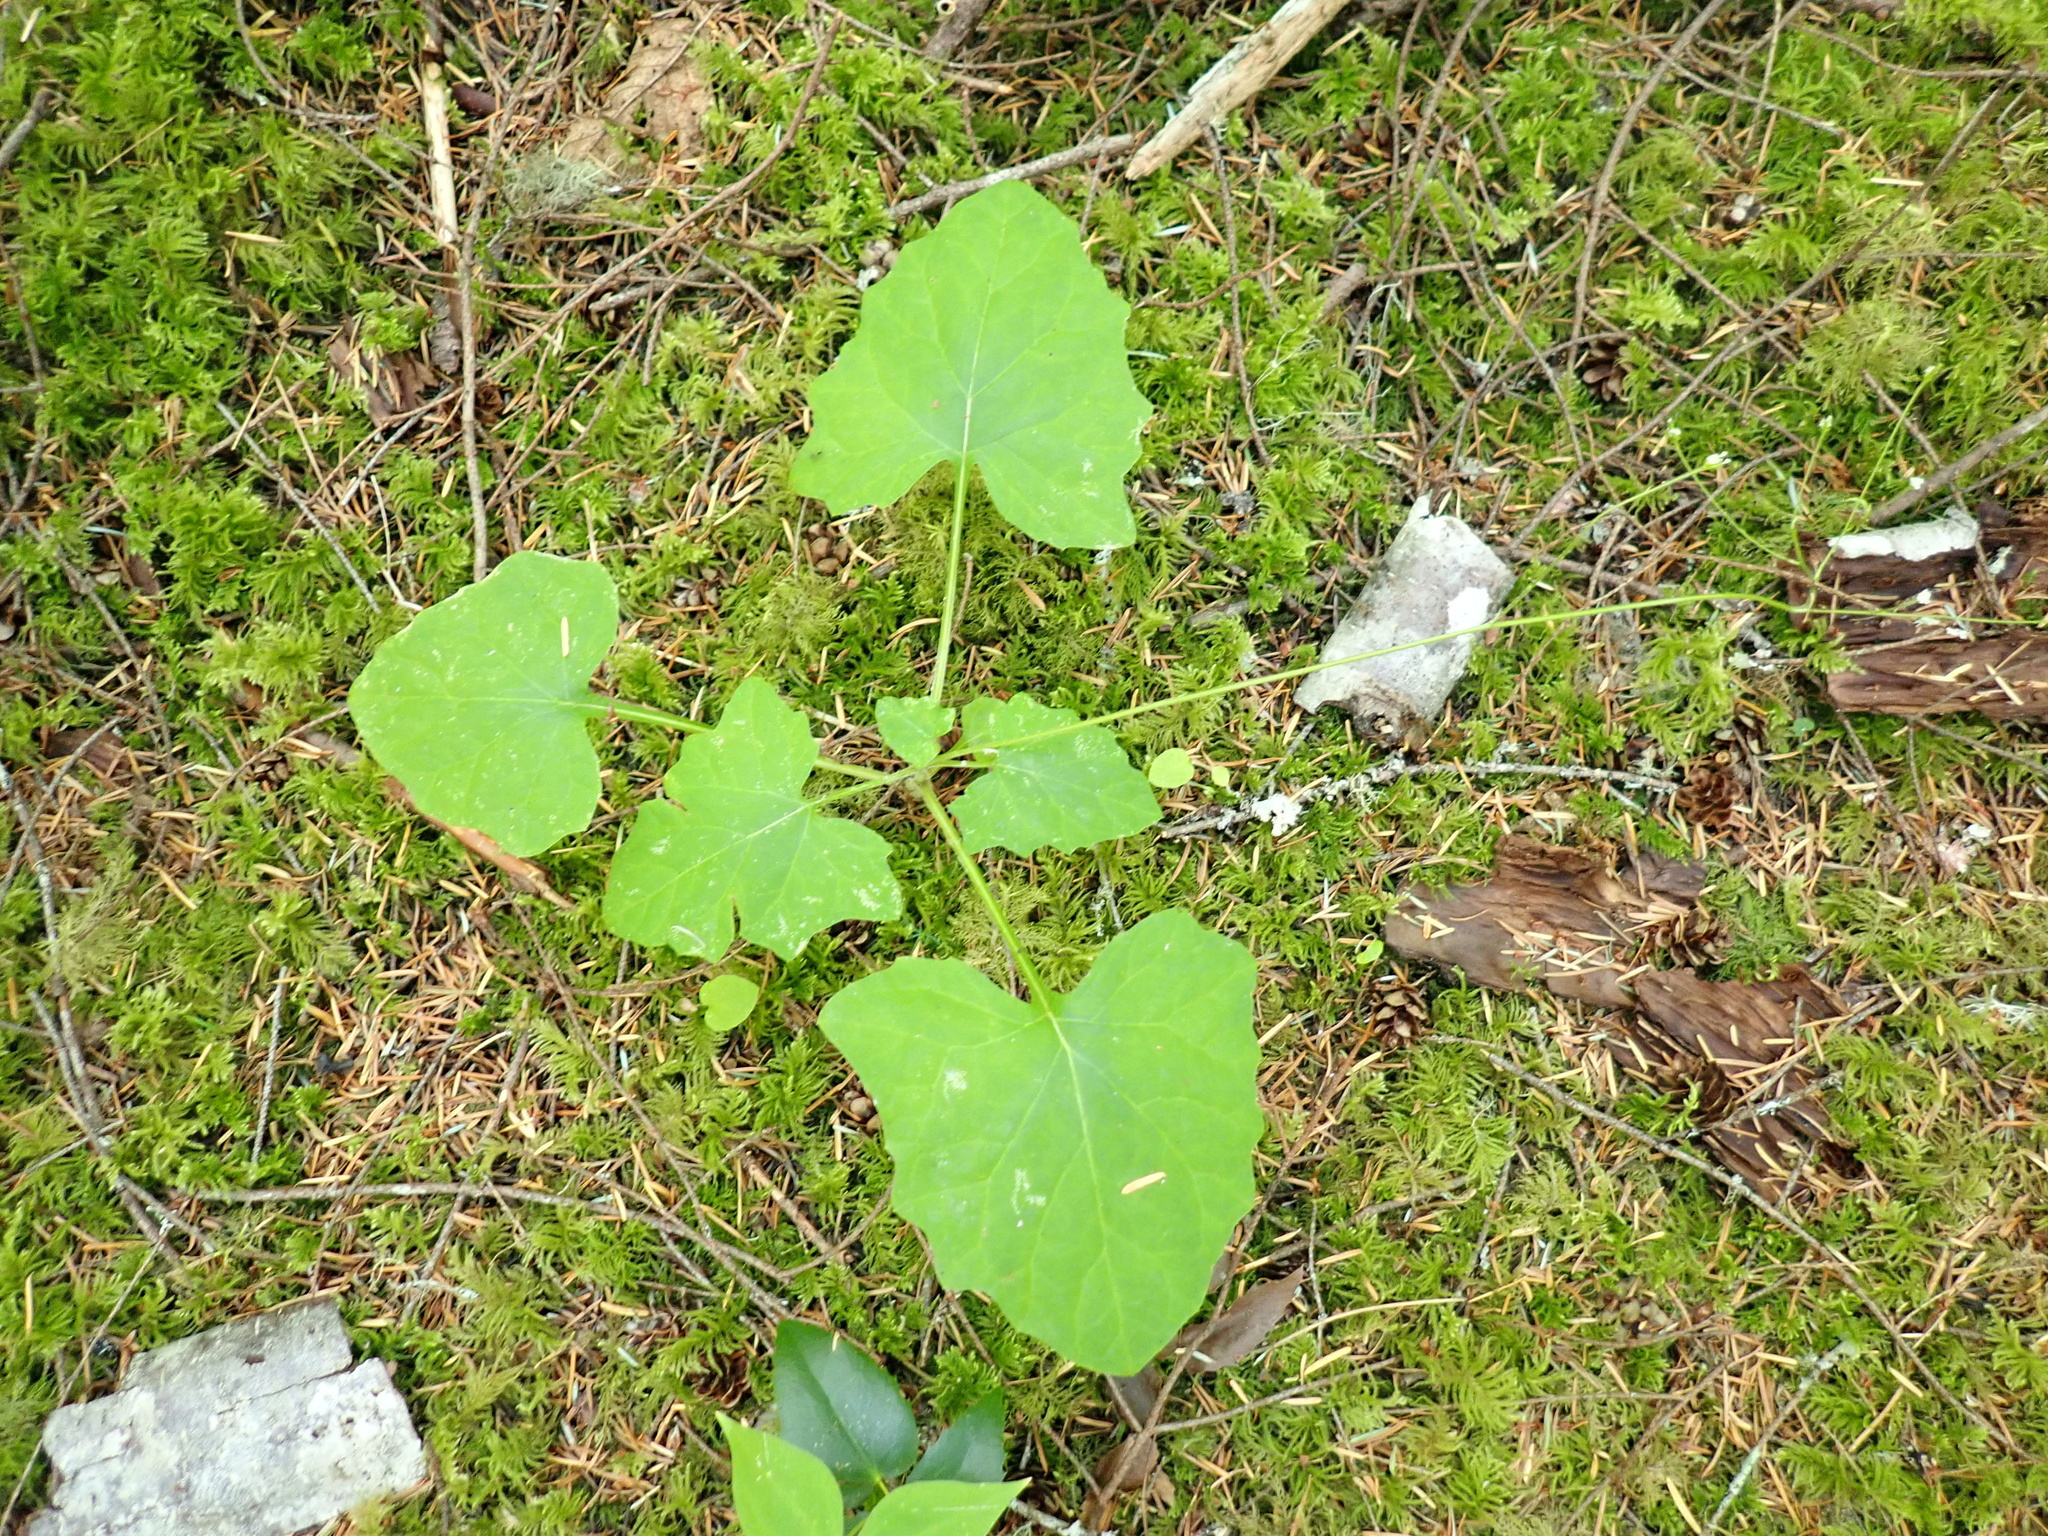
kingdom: Plantae
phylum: Tracheophyta
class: Magnoliopsida
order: Asterales
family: Asteraceae
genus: Adenocaulon
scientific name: Adenocaulon bicolor
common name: Trailplant
